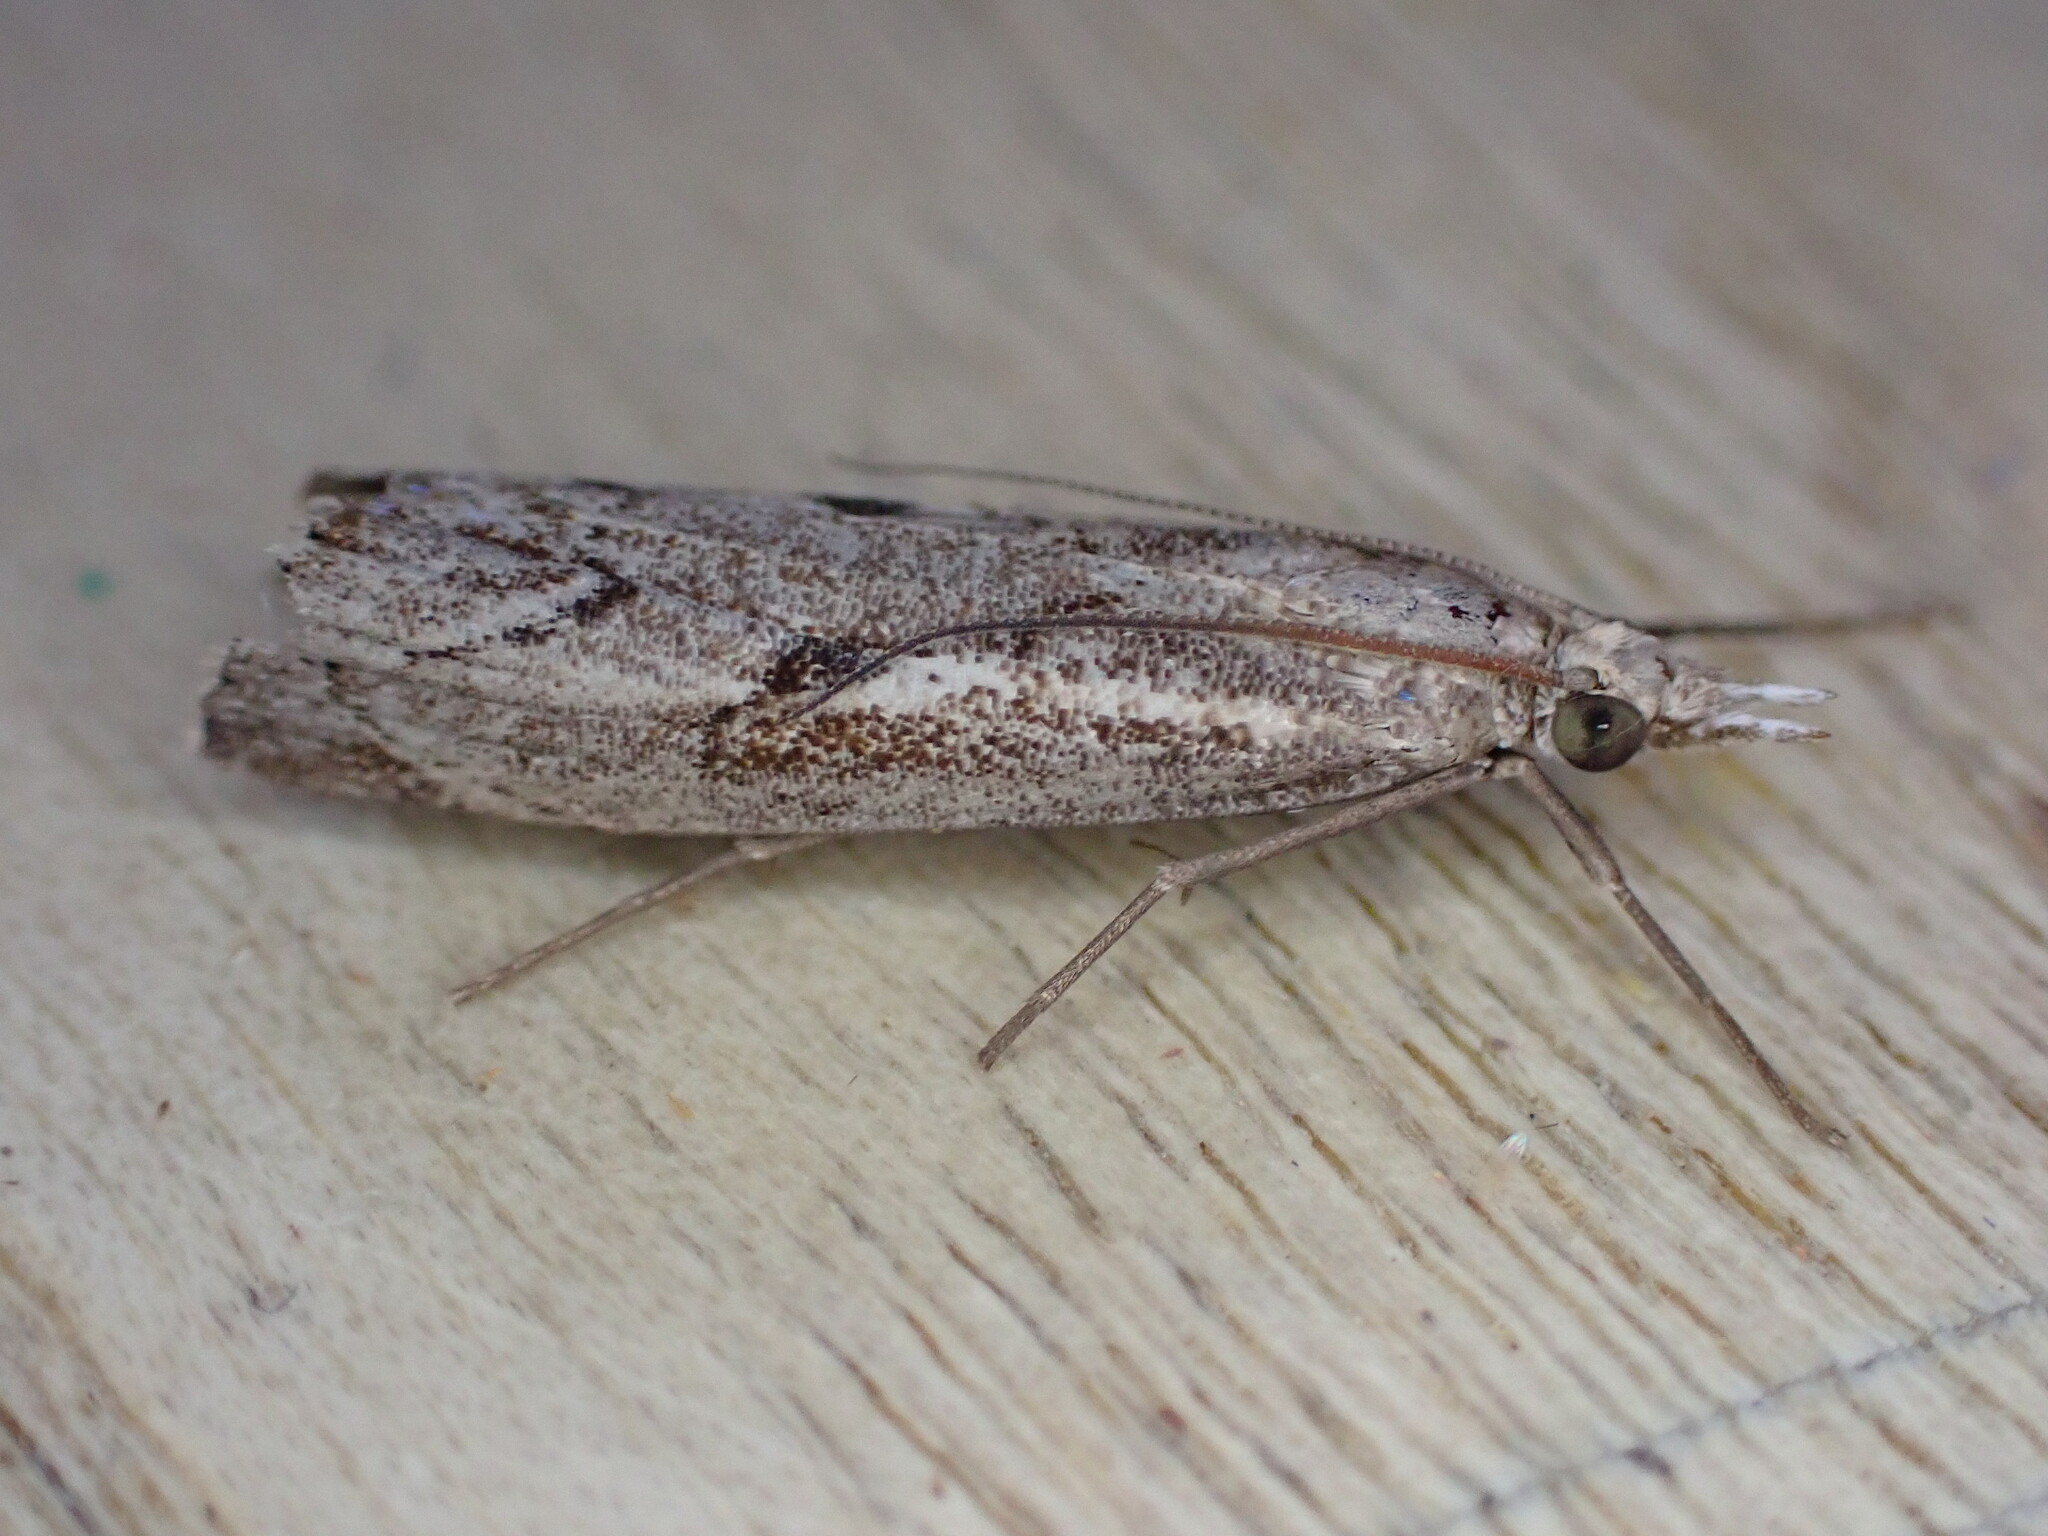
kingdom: Animalia
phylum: Arthropoda
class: Insecta
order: Lepidoptera
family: Crambidae
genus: Agriphila
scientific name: Agriphila geniculea
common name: Elbow-stripe grass-veneer
